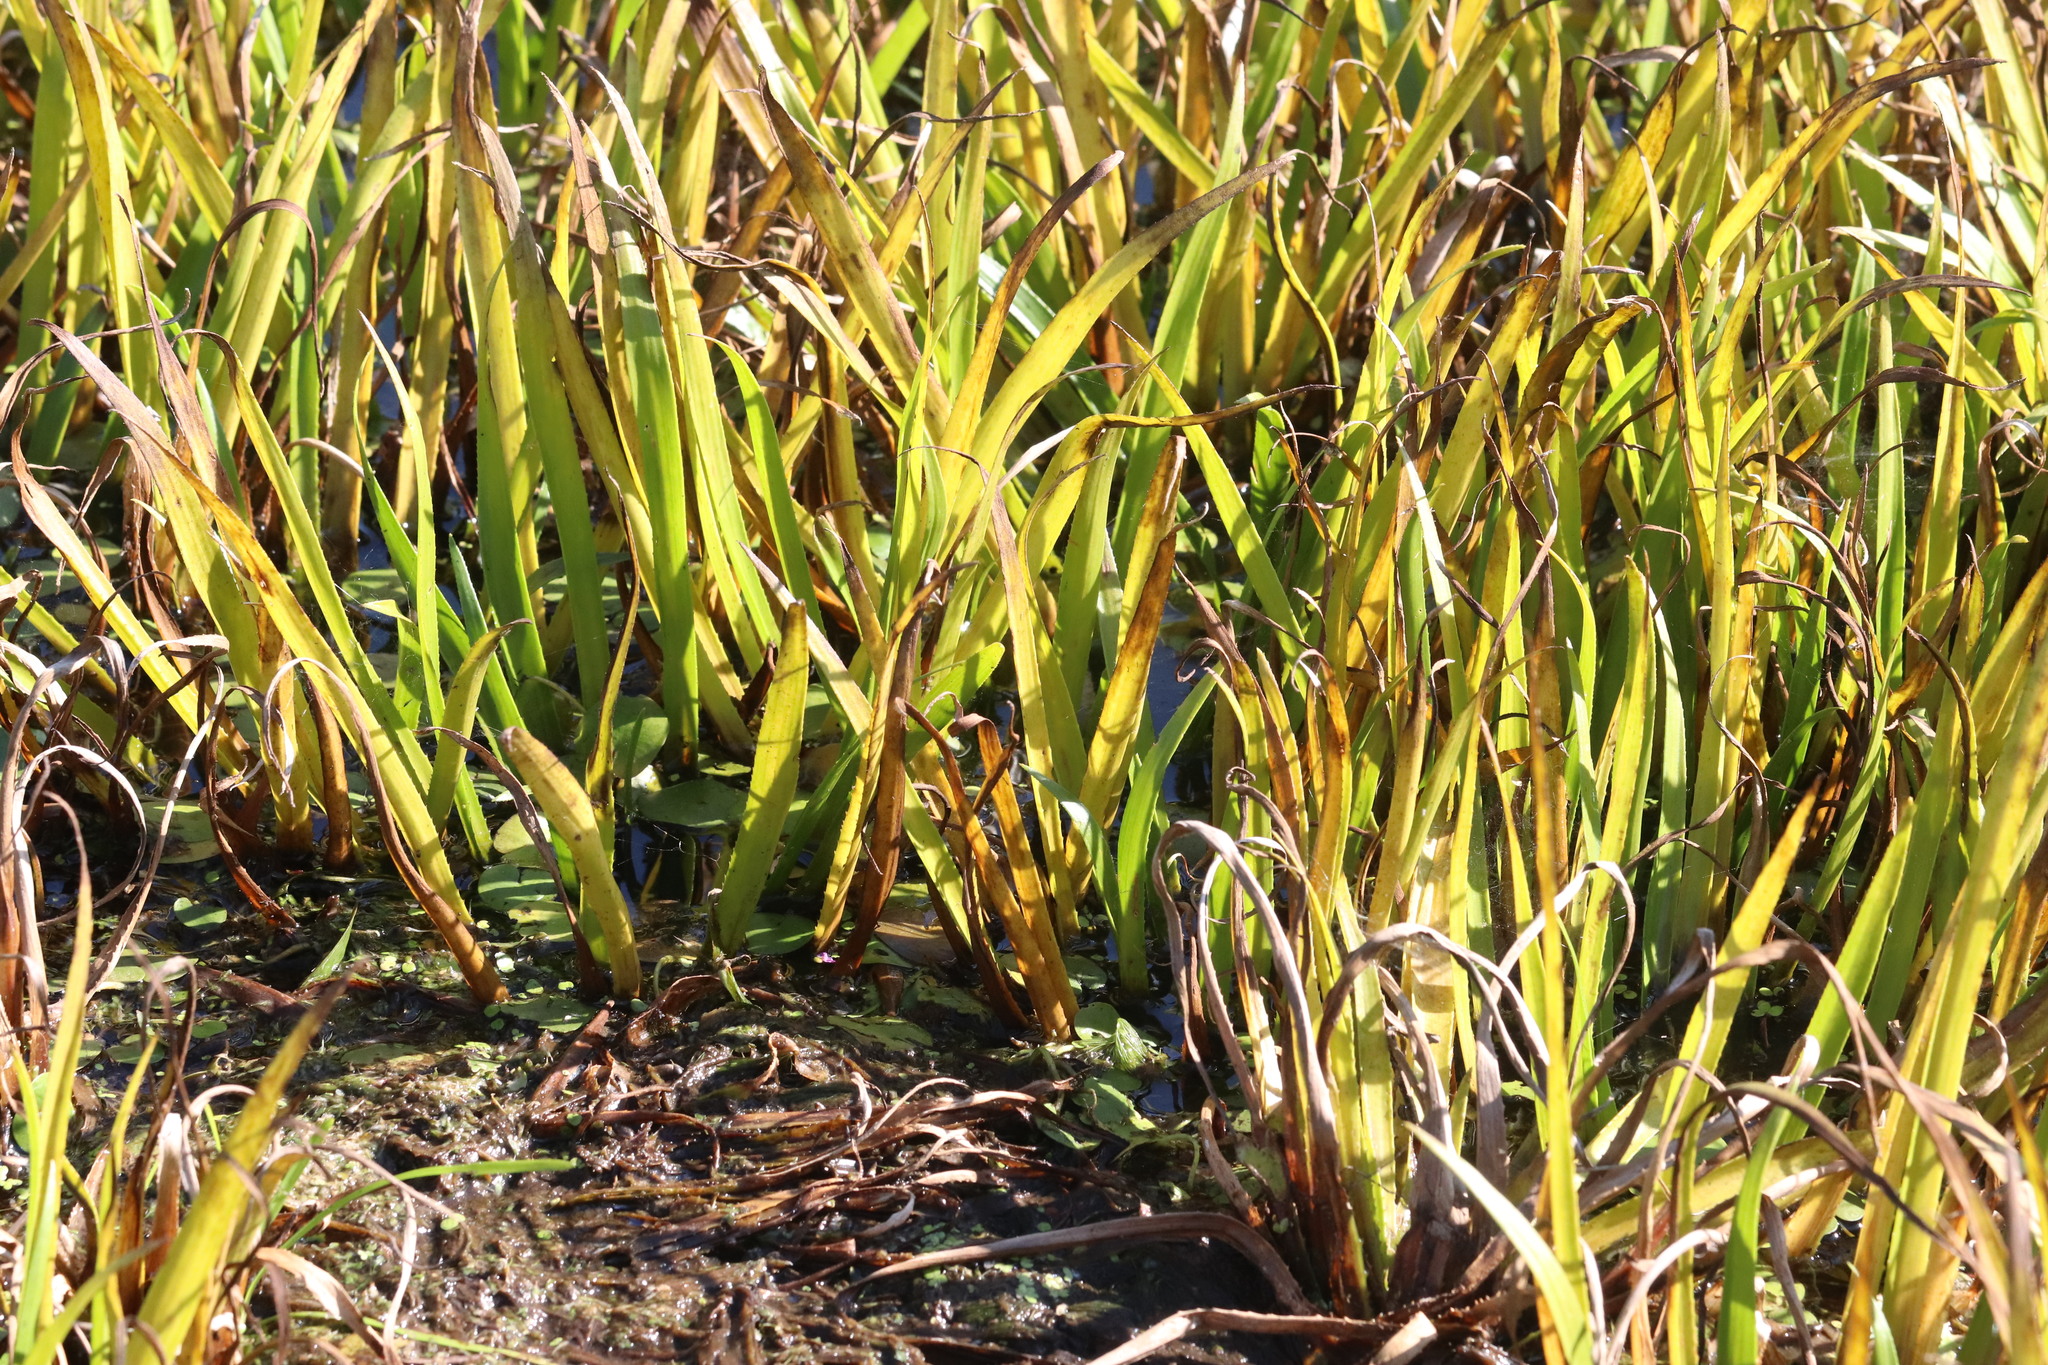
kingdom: Plantae
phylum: Tracheophyta
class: Liliopsida
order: Alismatales
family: Hydrocharitaceae
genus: Stratiotes
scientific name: Stratiotes aloides
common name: Water-soldier
